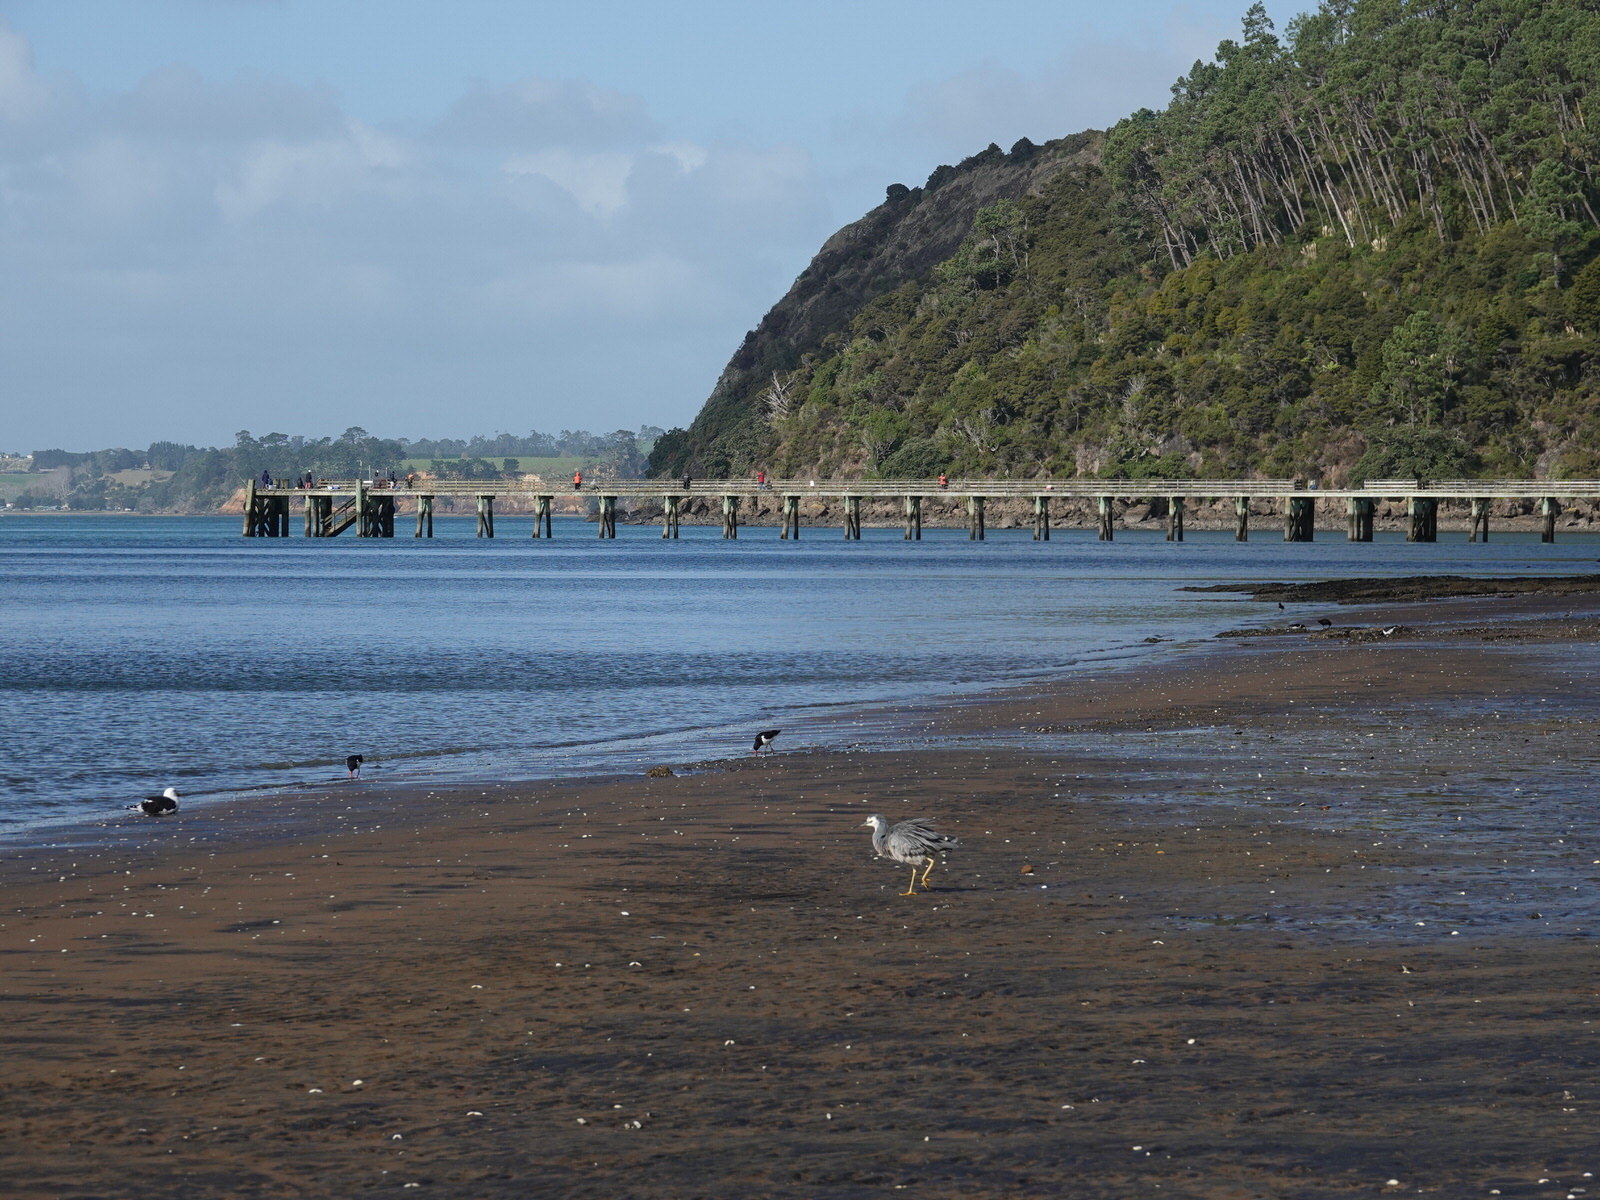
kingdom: Animalia
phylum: Chordata
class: Aves
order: Pelecaniformes
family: Ardeidae
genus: Egretta
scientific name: Egretta novaehollandiae
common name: White-faced heron
